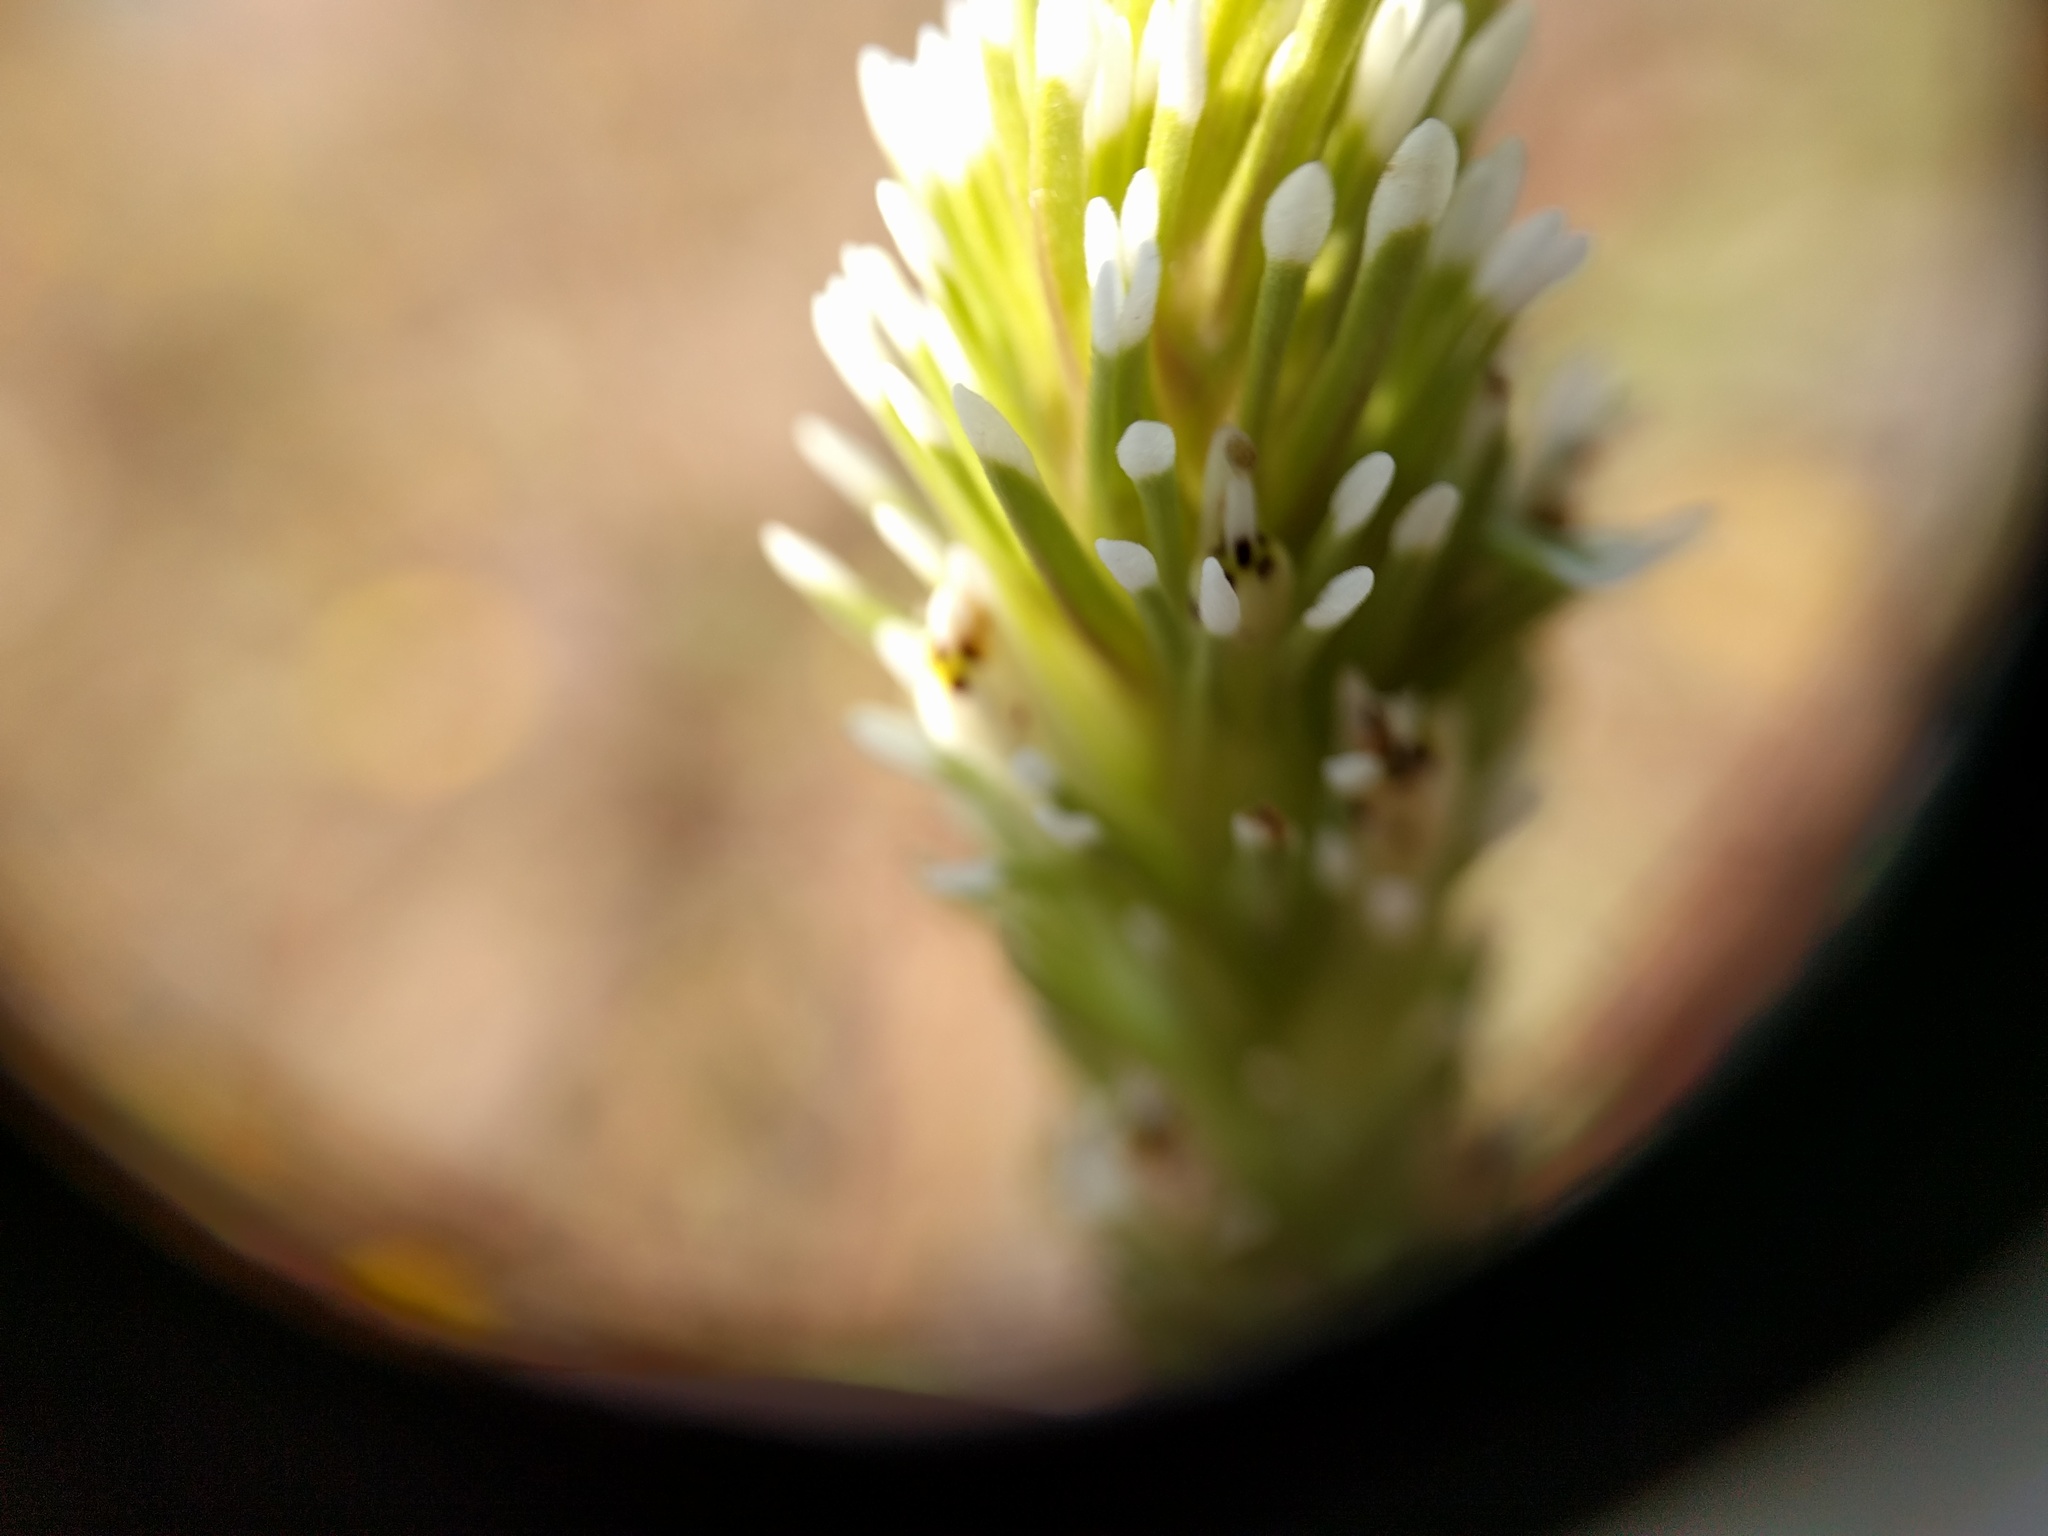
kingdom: Plantae
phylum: Tracheophyta
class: Magnoliopsida
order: Lamiales
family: Orobanchaceae
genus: Castilleja
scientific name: Castilleja attenuata
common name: Valley tassels
